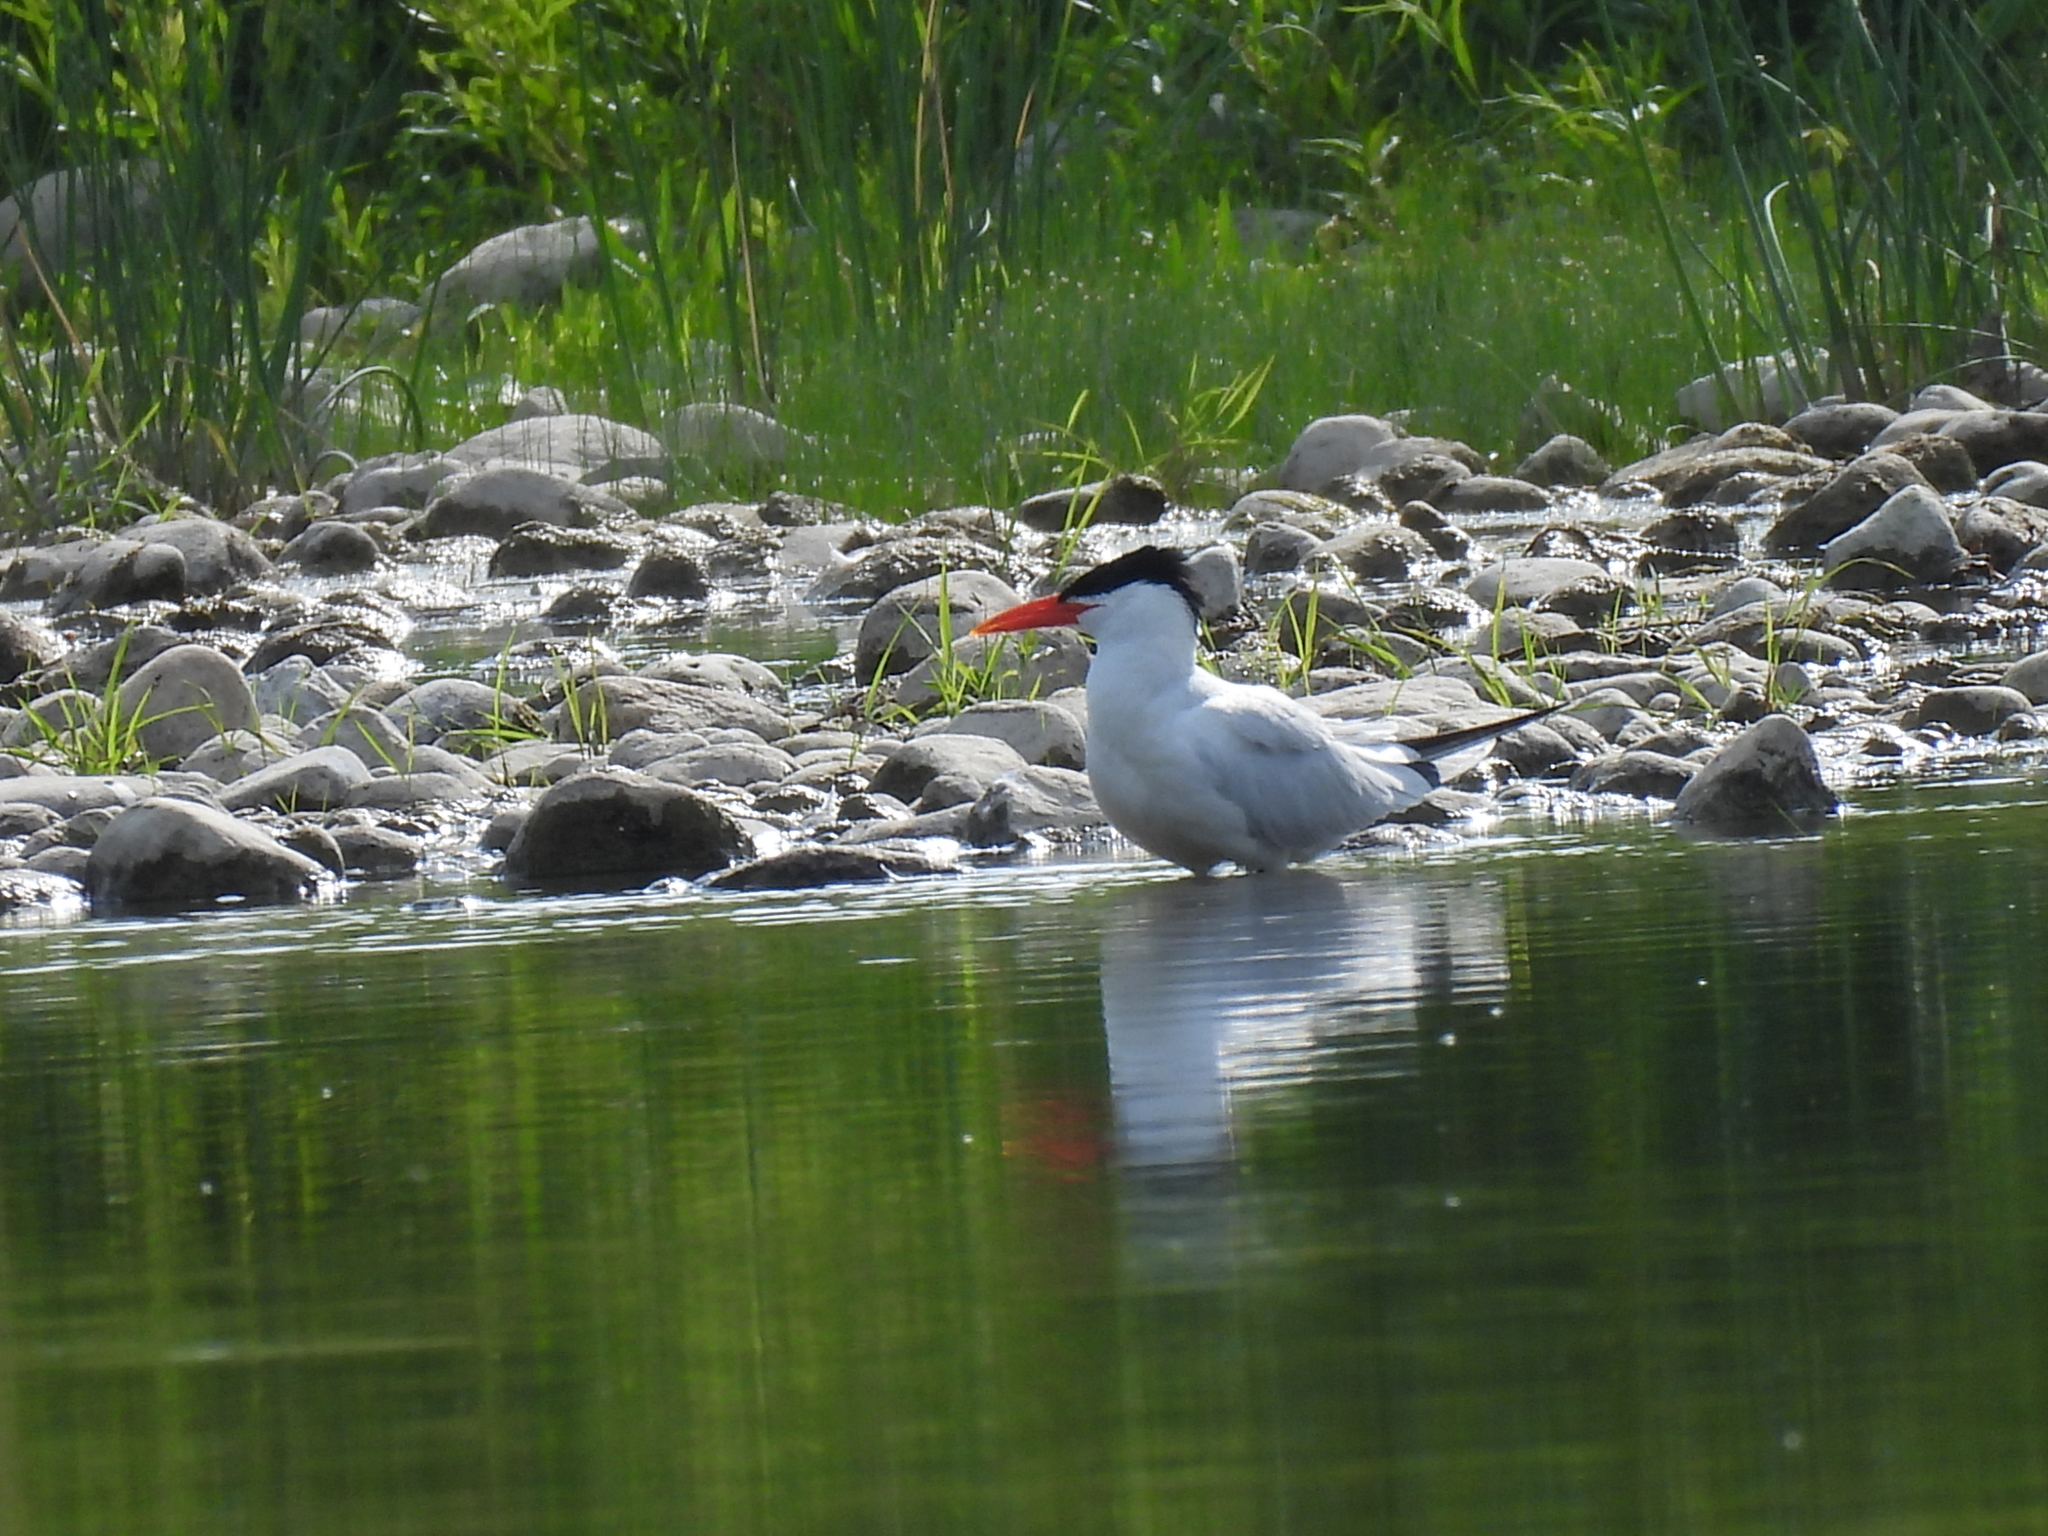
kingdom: Animalia
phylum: Chordata
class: Aves
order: Charadriiformes
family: Laridae
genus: Hydroprogne
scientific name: Hydroprogne caspia
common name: Caspian tern
